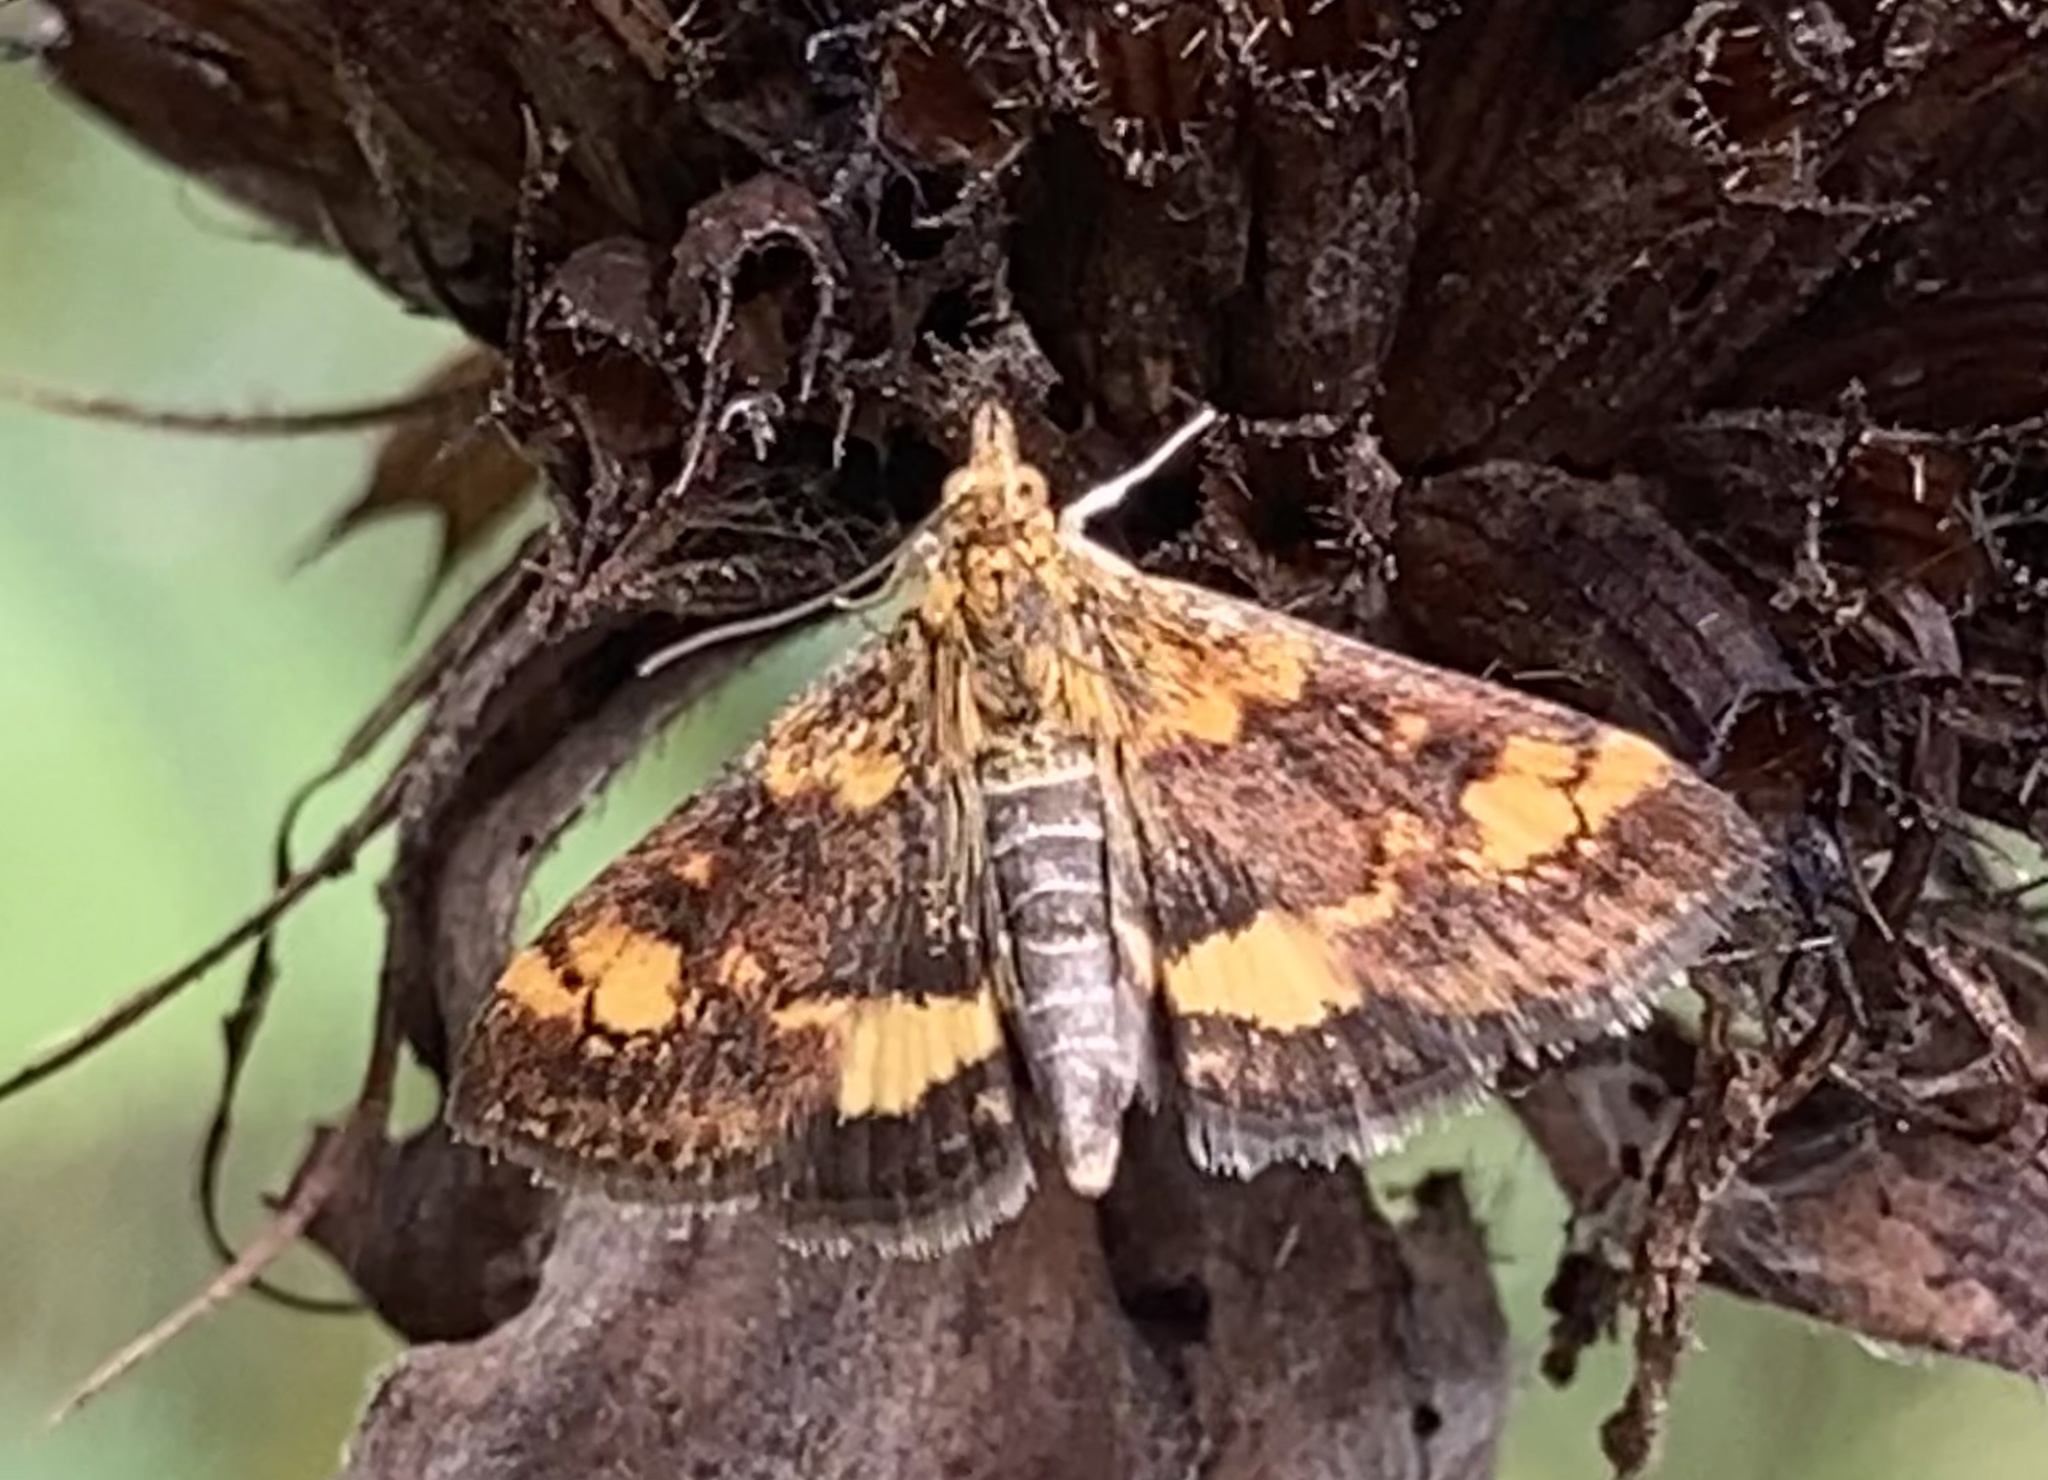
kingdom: Animalia
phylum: Arthropoda
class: Insecta
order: Lepidoptera
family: Crambidae
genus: Pyrausta
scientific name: Pyrausta orphisalis
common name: Orange mint moth
